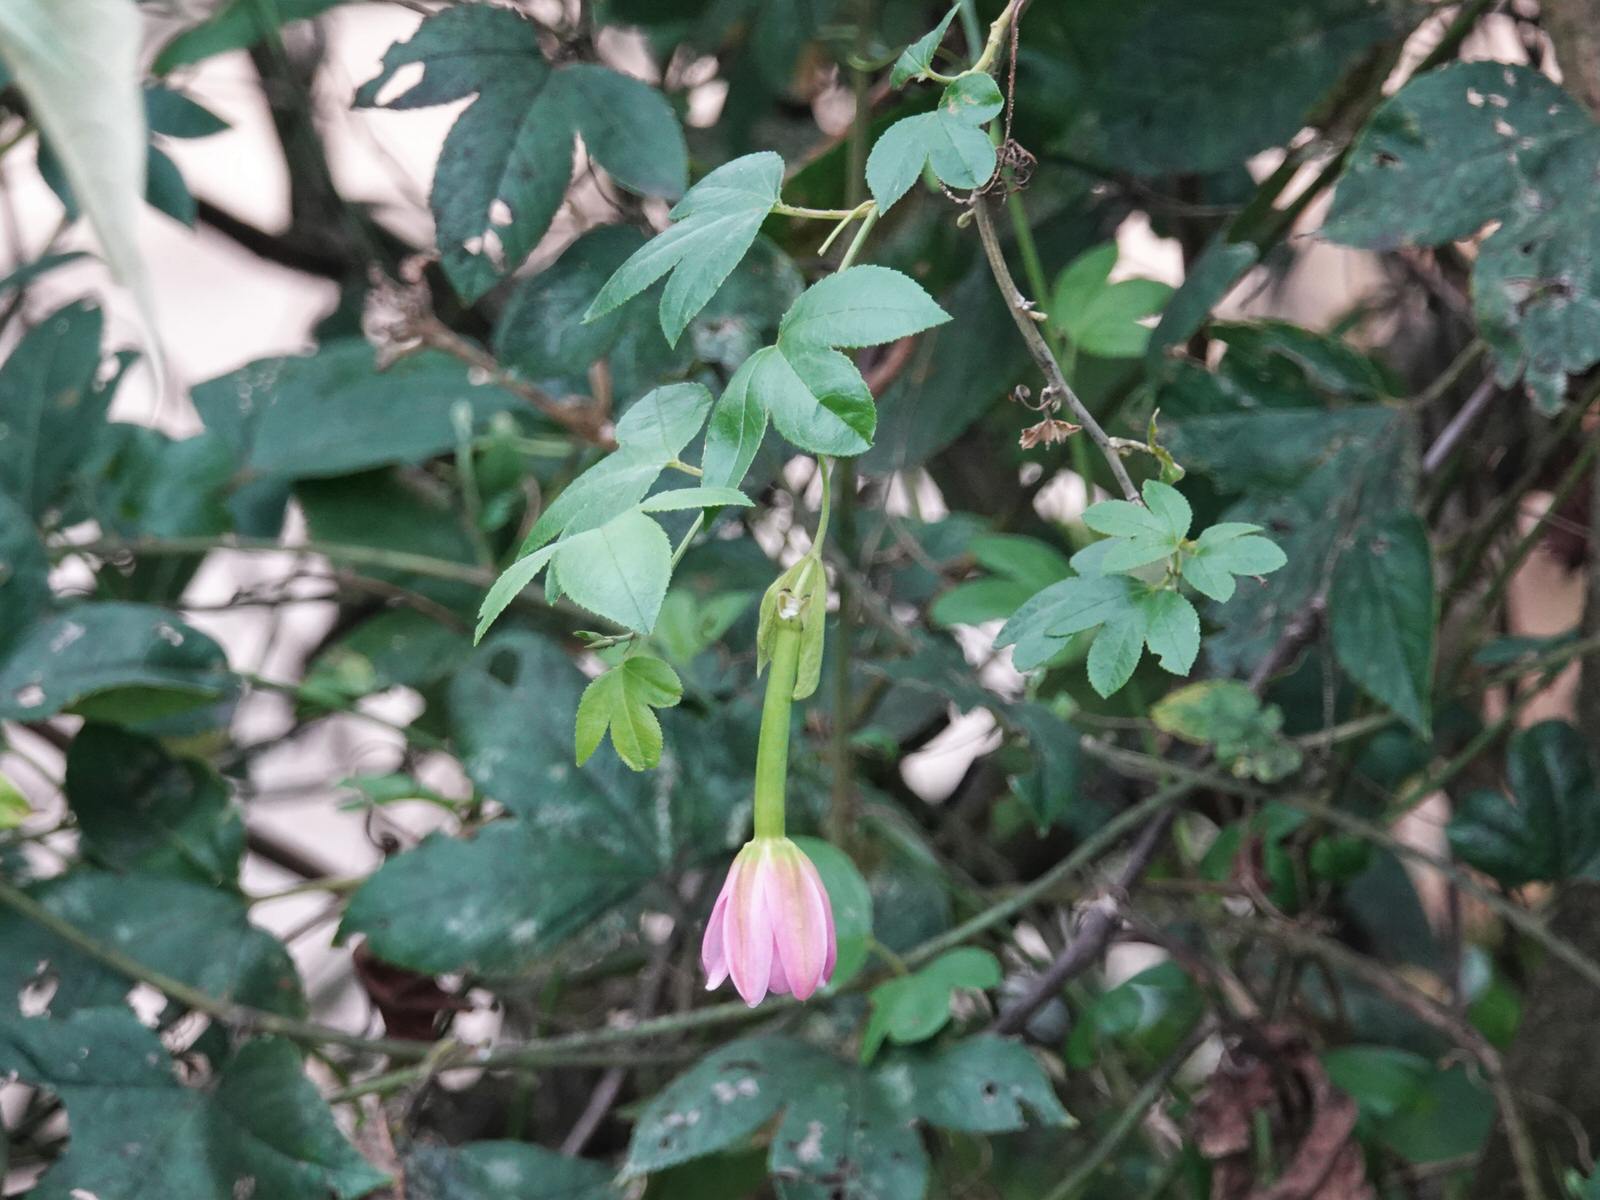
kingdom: Plantae
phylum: Tracheophyta
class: Magnoliopsida
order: Malpighiales
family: Passifloraceae
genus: Passiflora
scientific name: Passiflora tarminiana
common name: Banana poka
